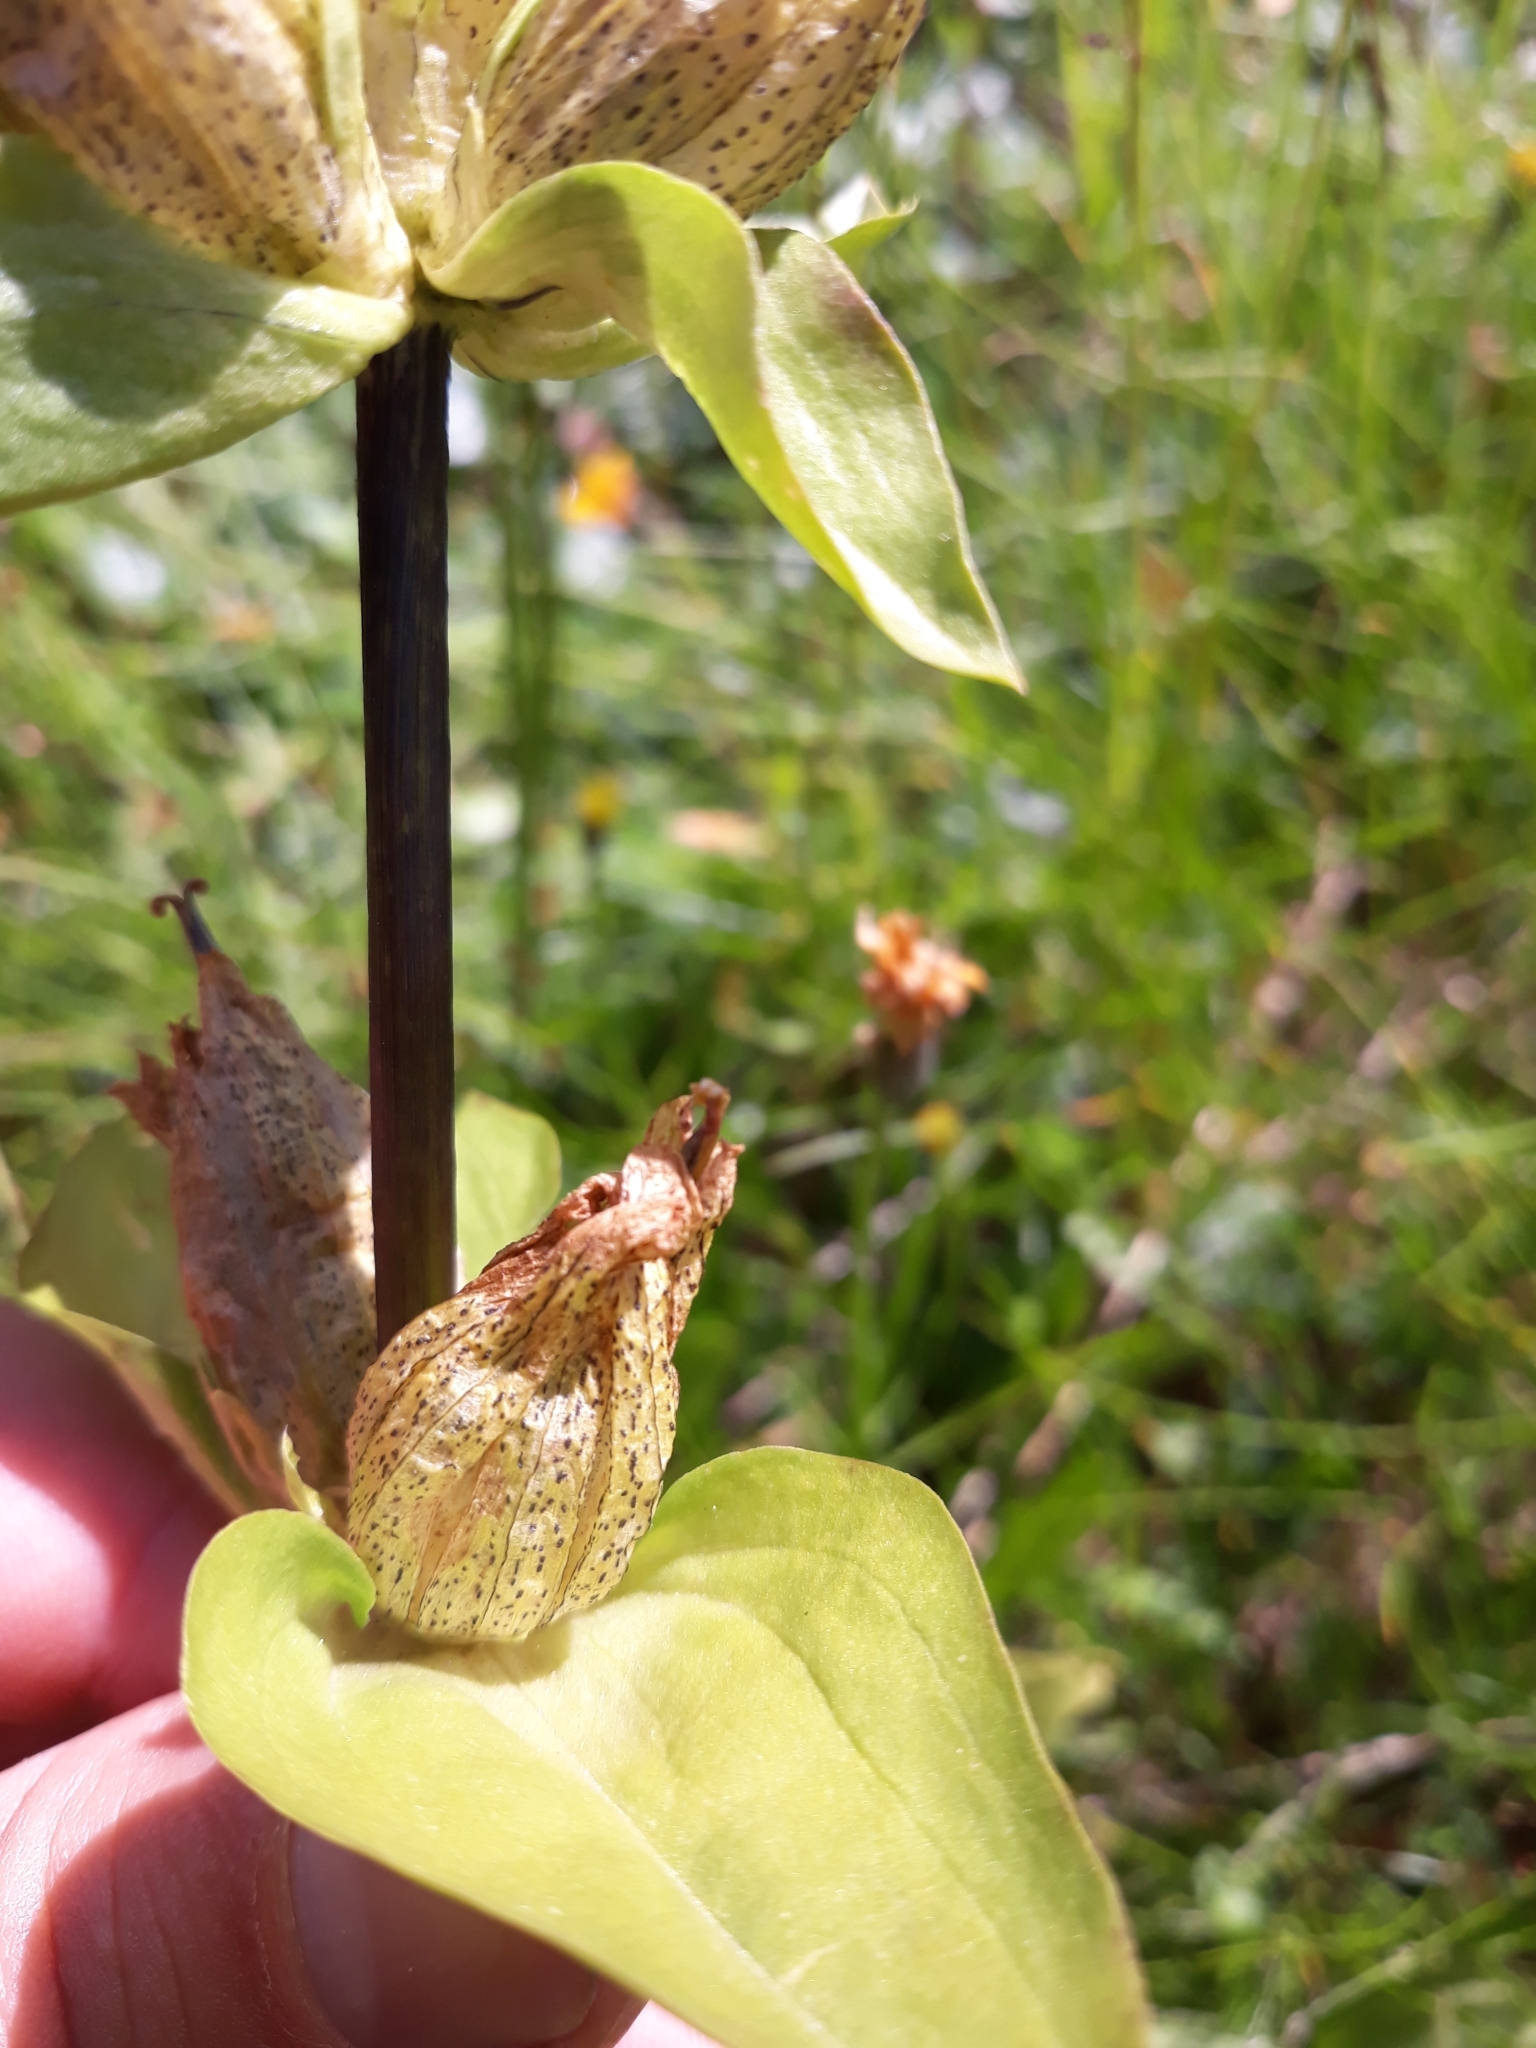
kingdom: Plantae
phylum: Tracheophyta
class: Magnoliopsida
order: Gentianales
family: Gentianaceae
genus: Gentiana
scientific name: Gentiana punctata
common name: Spotted gentian
